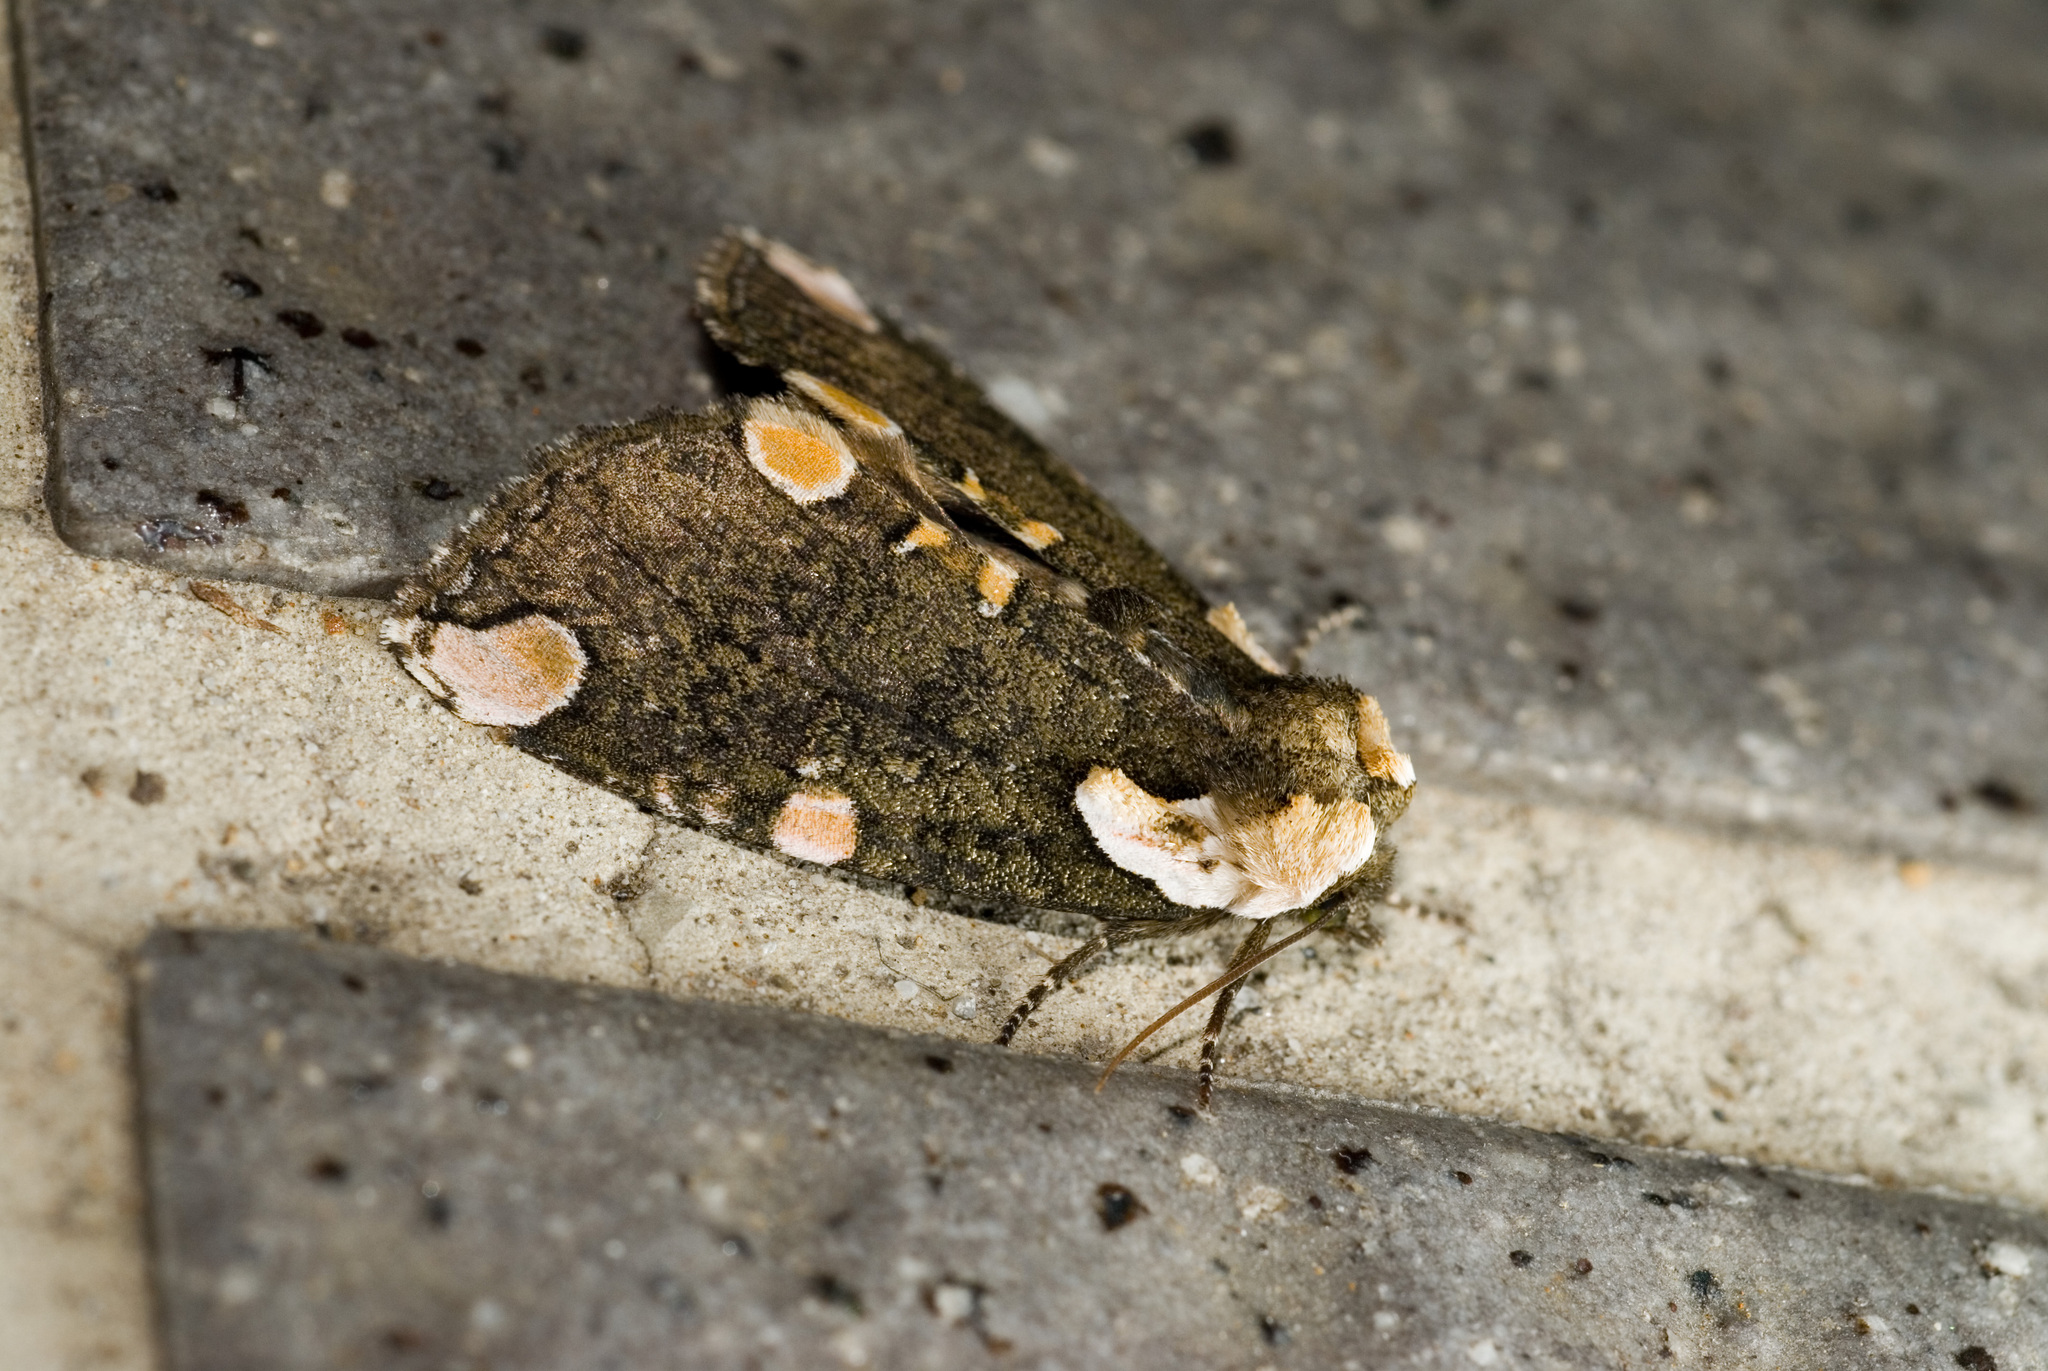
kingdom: Animalia
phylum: Arthropoda
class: Insecta
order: Lepidoptera
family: Drepanidae
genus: Macrothyatira
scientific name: Macrothyatira arizana
